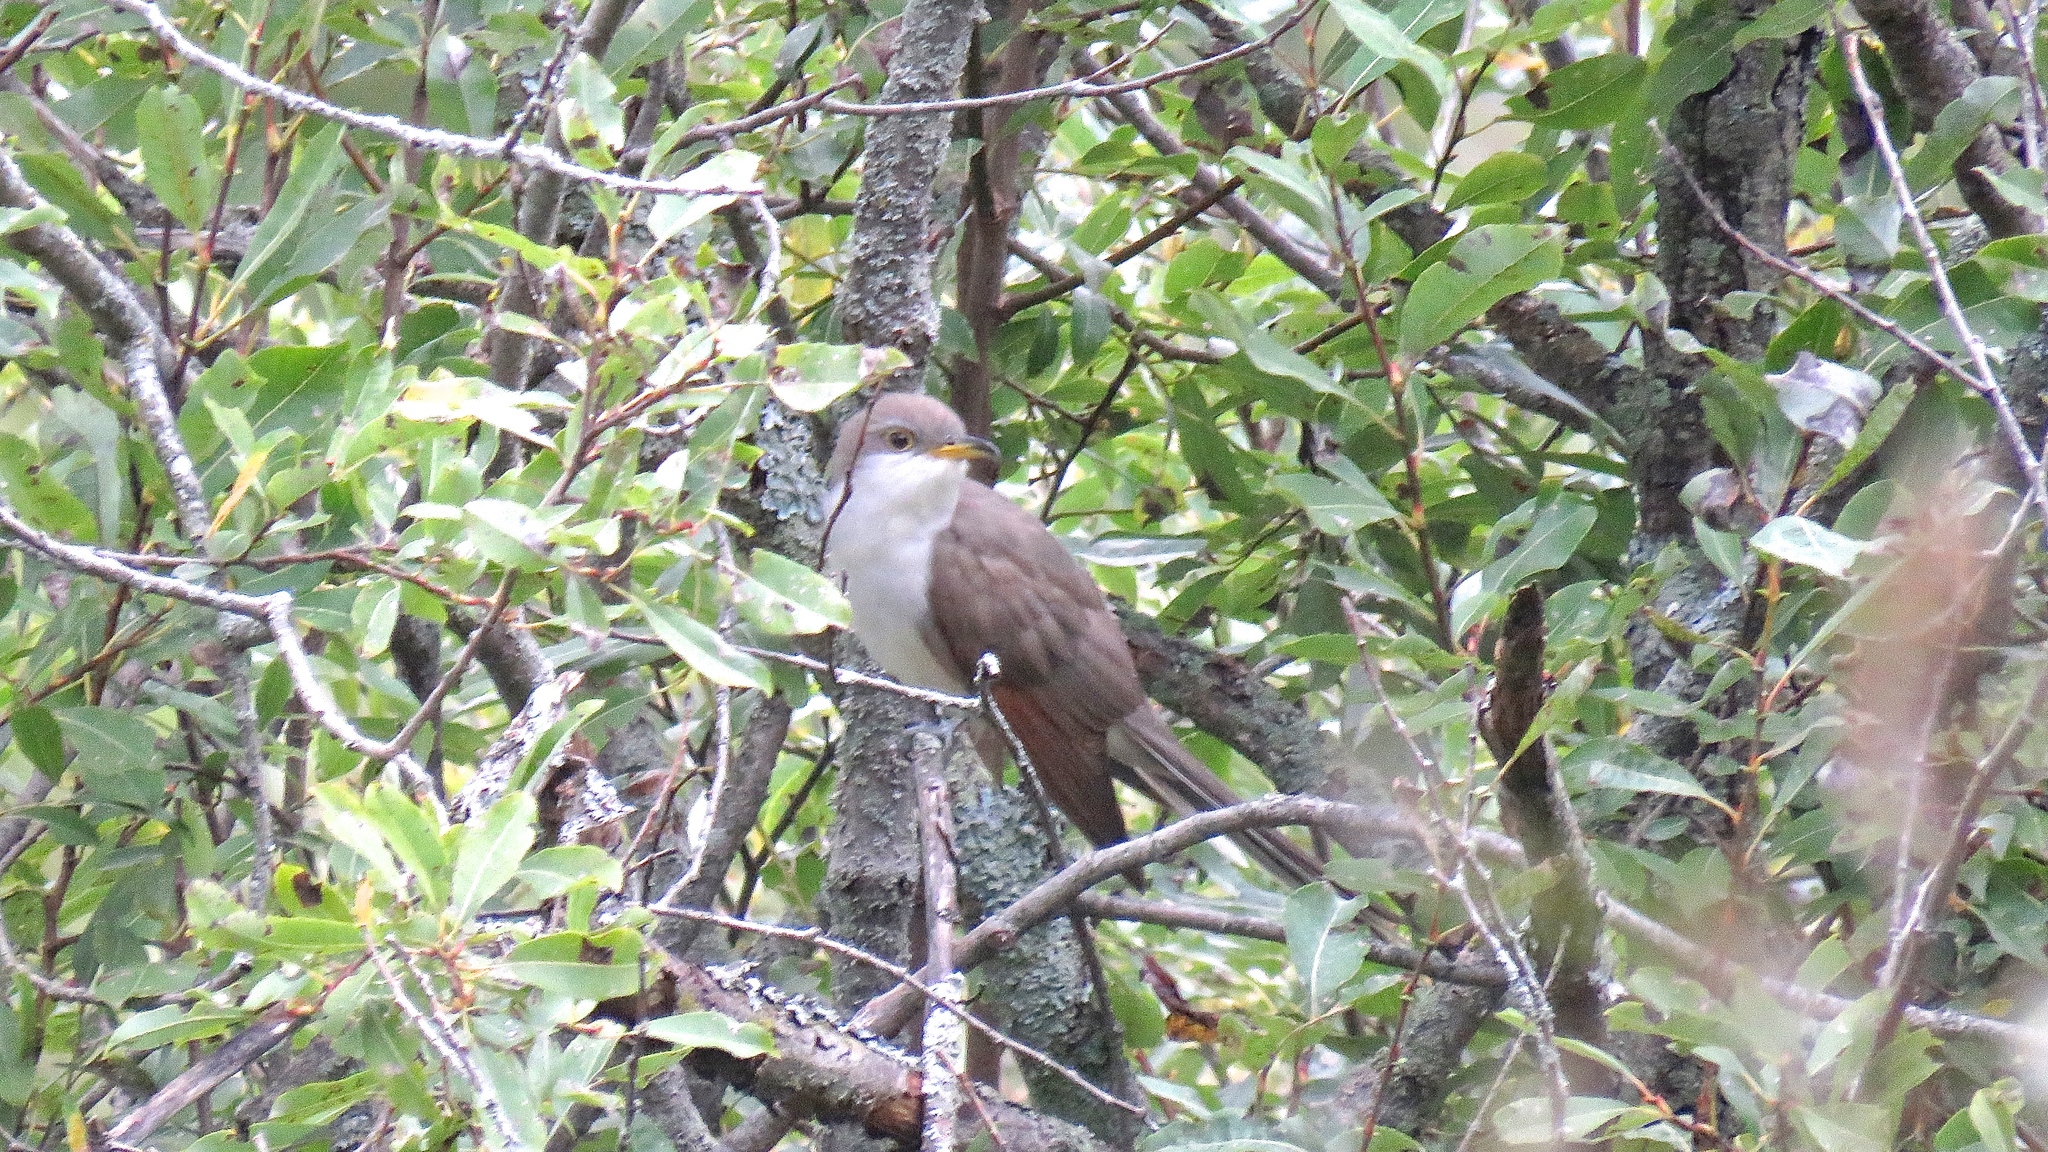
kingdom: Animalia
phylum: Chordata
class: Aves
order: Cuculiformes
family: Cuculidae
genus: Coccyzus
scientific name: Coccyzus americanus
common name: Yellow-billed cuckoo
